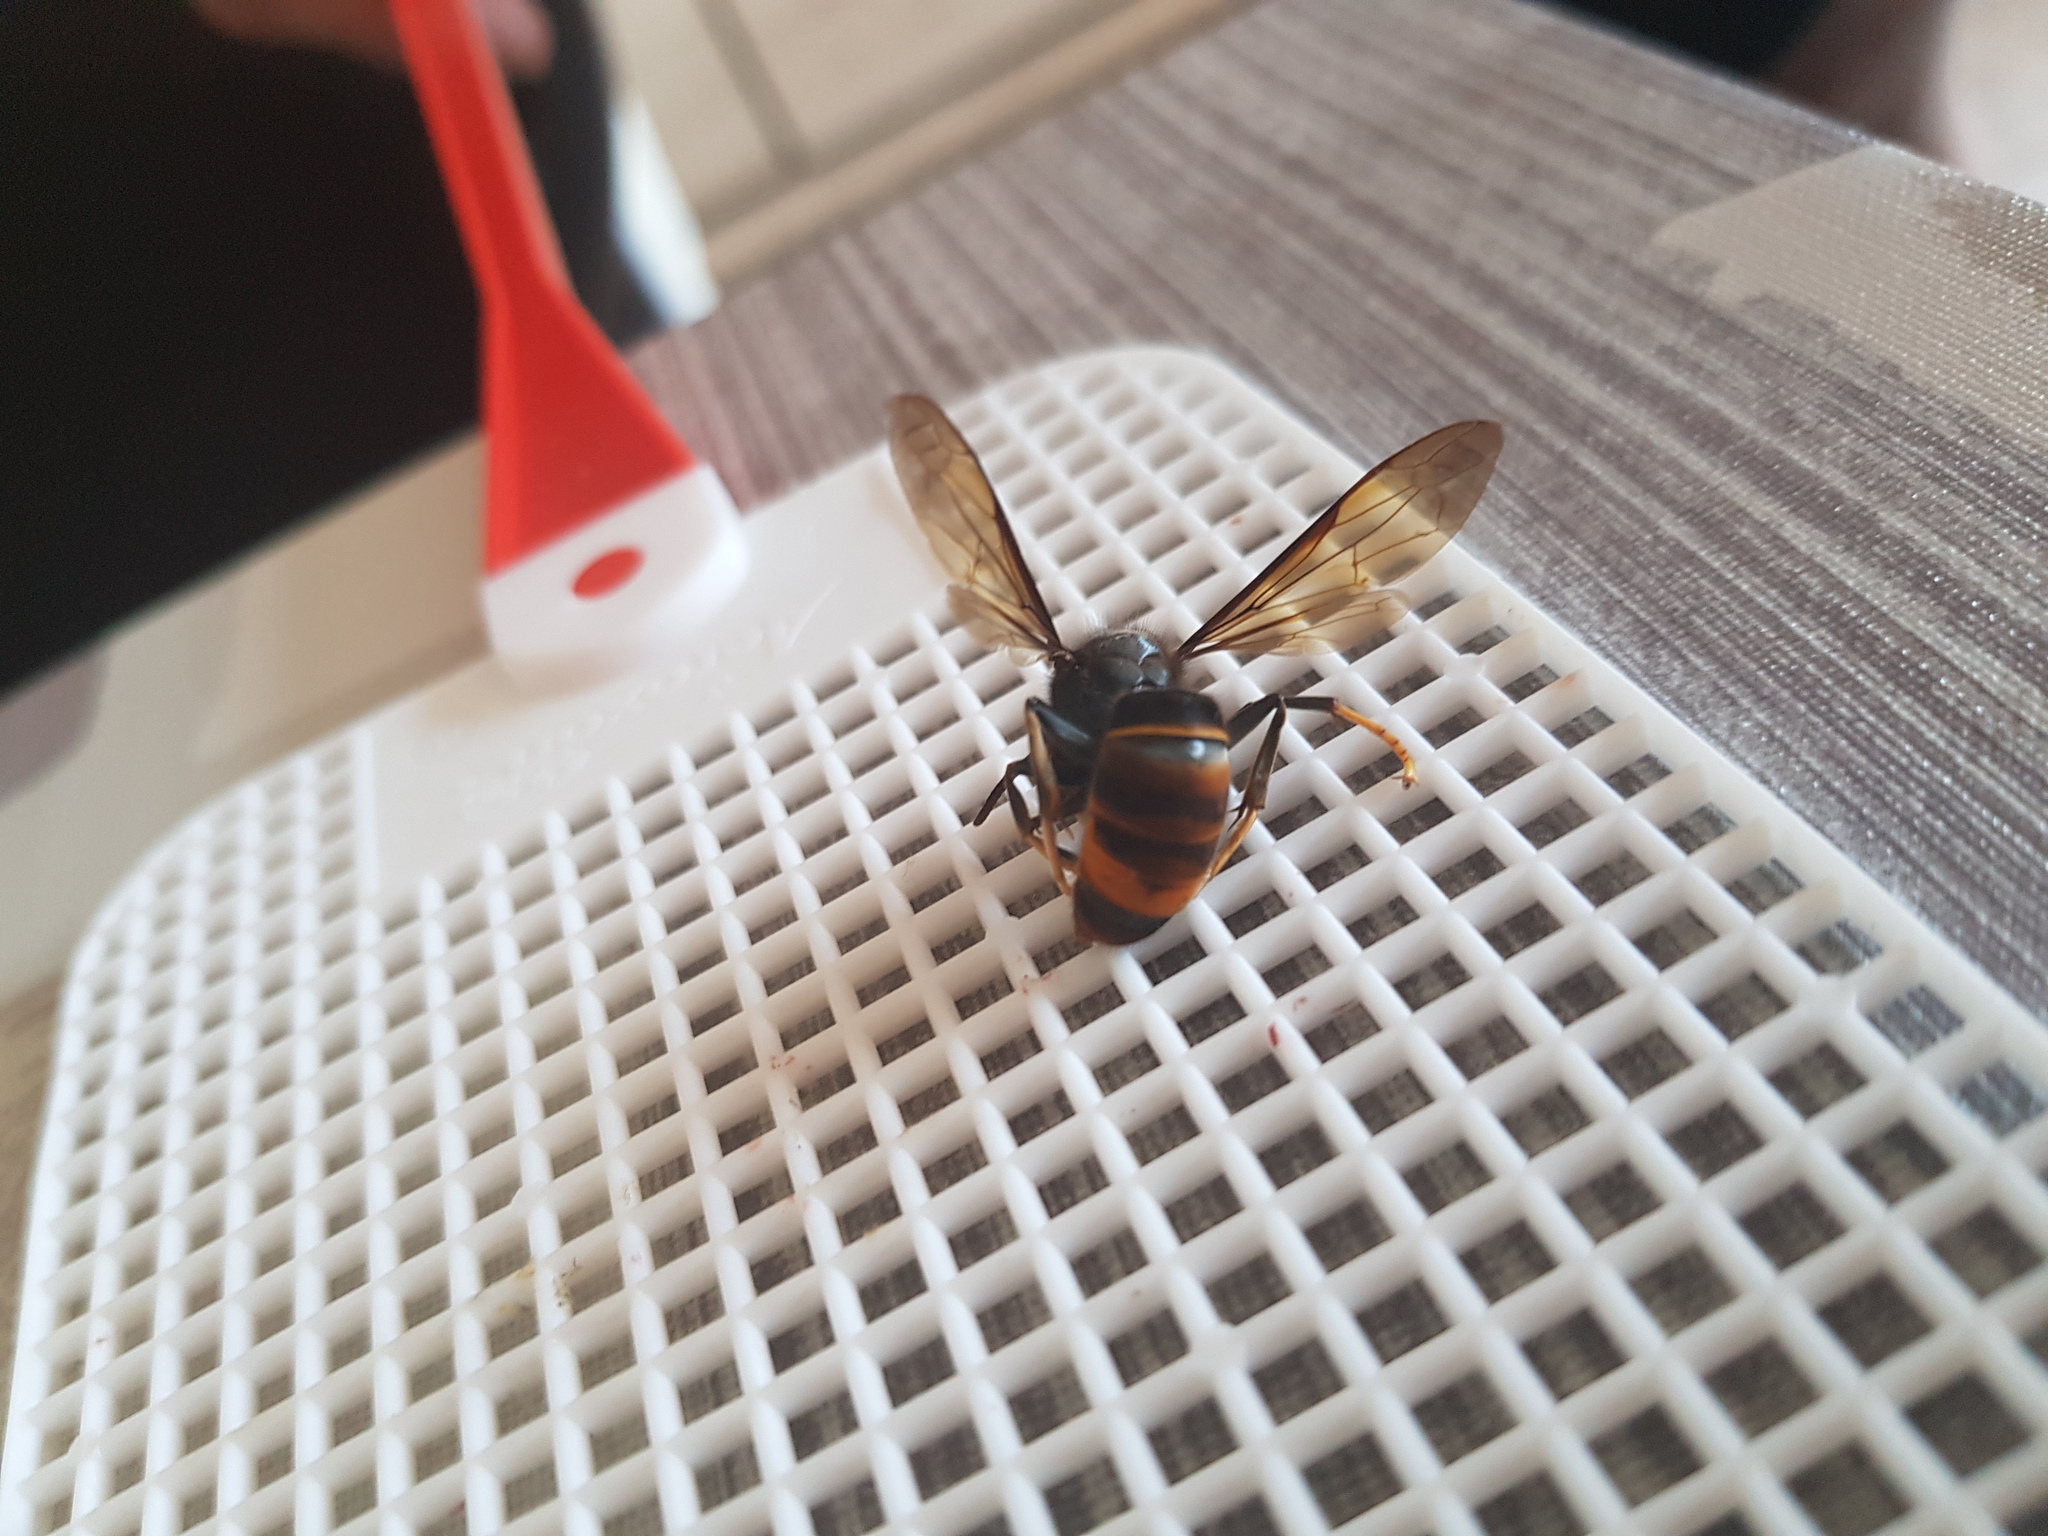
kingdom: Animalia
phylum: Arthropoda
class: Insecta
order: Hymenoptera
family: Vespidae
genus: Vespa
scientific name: Vespa velutina
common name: Asian hornet
